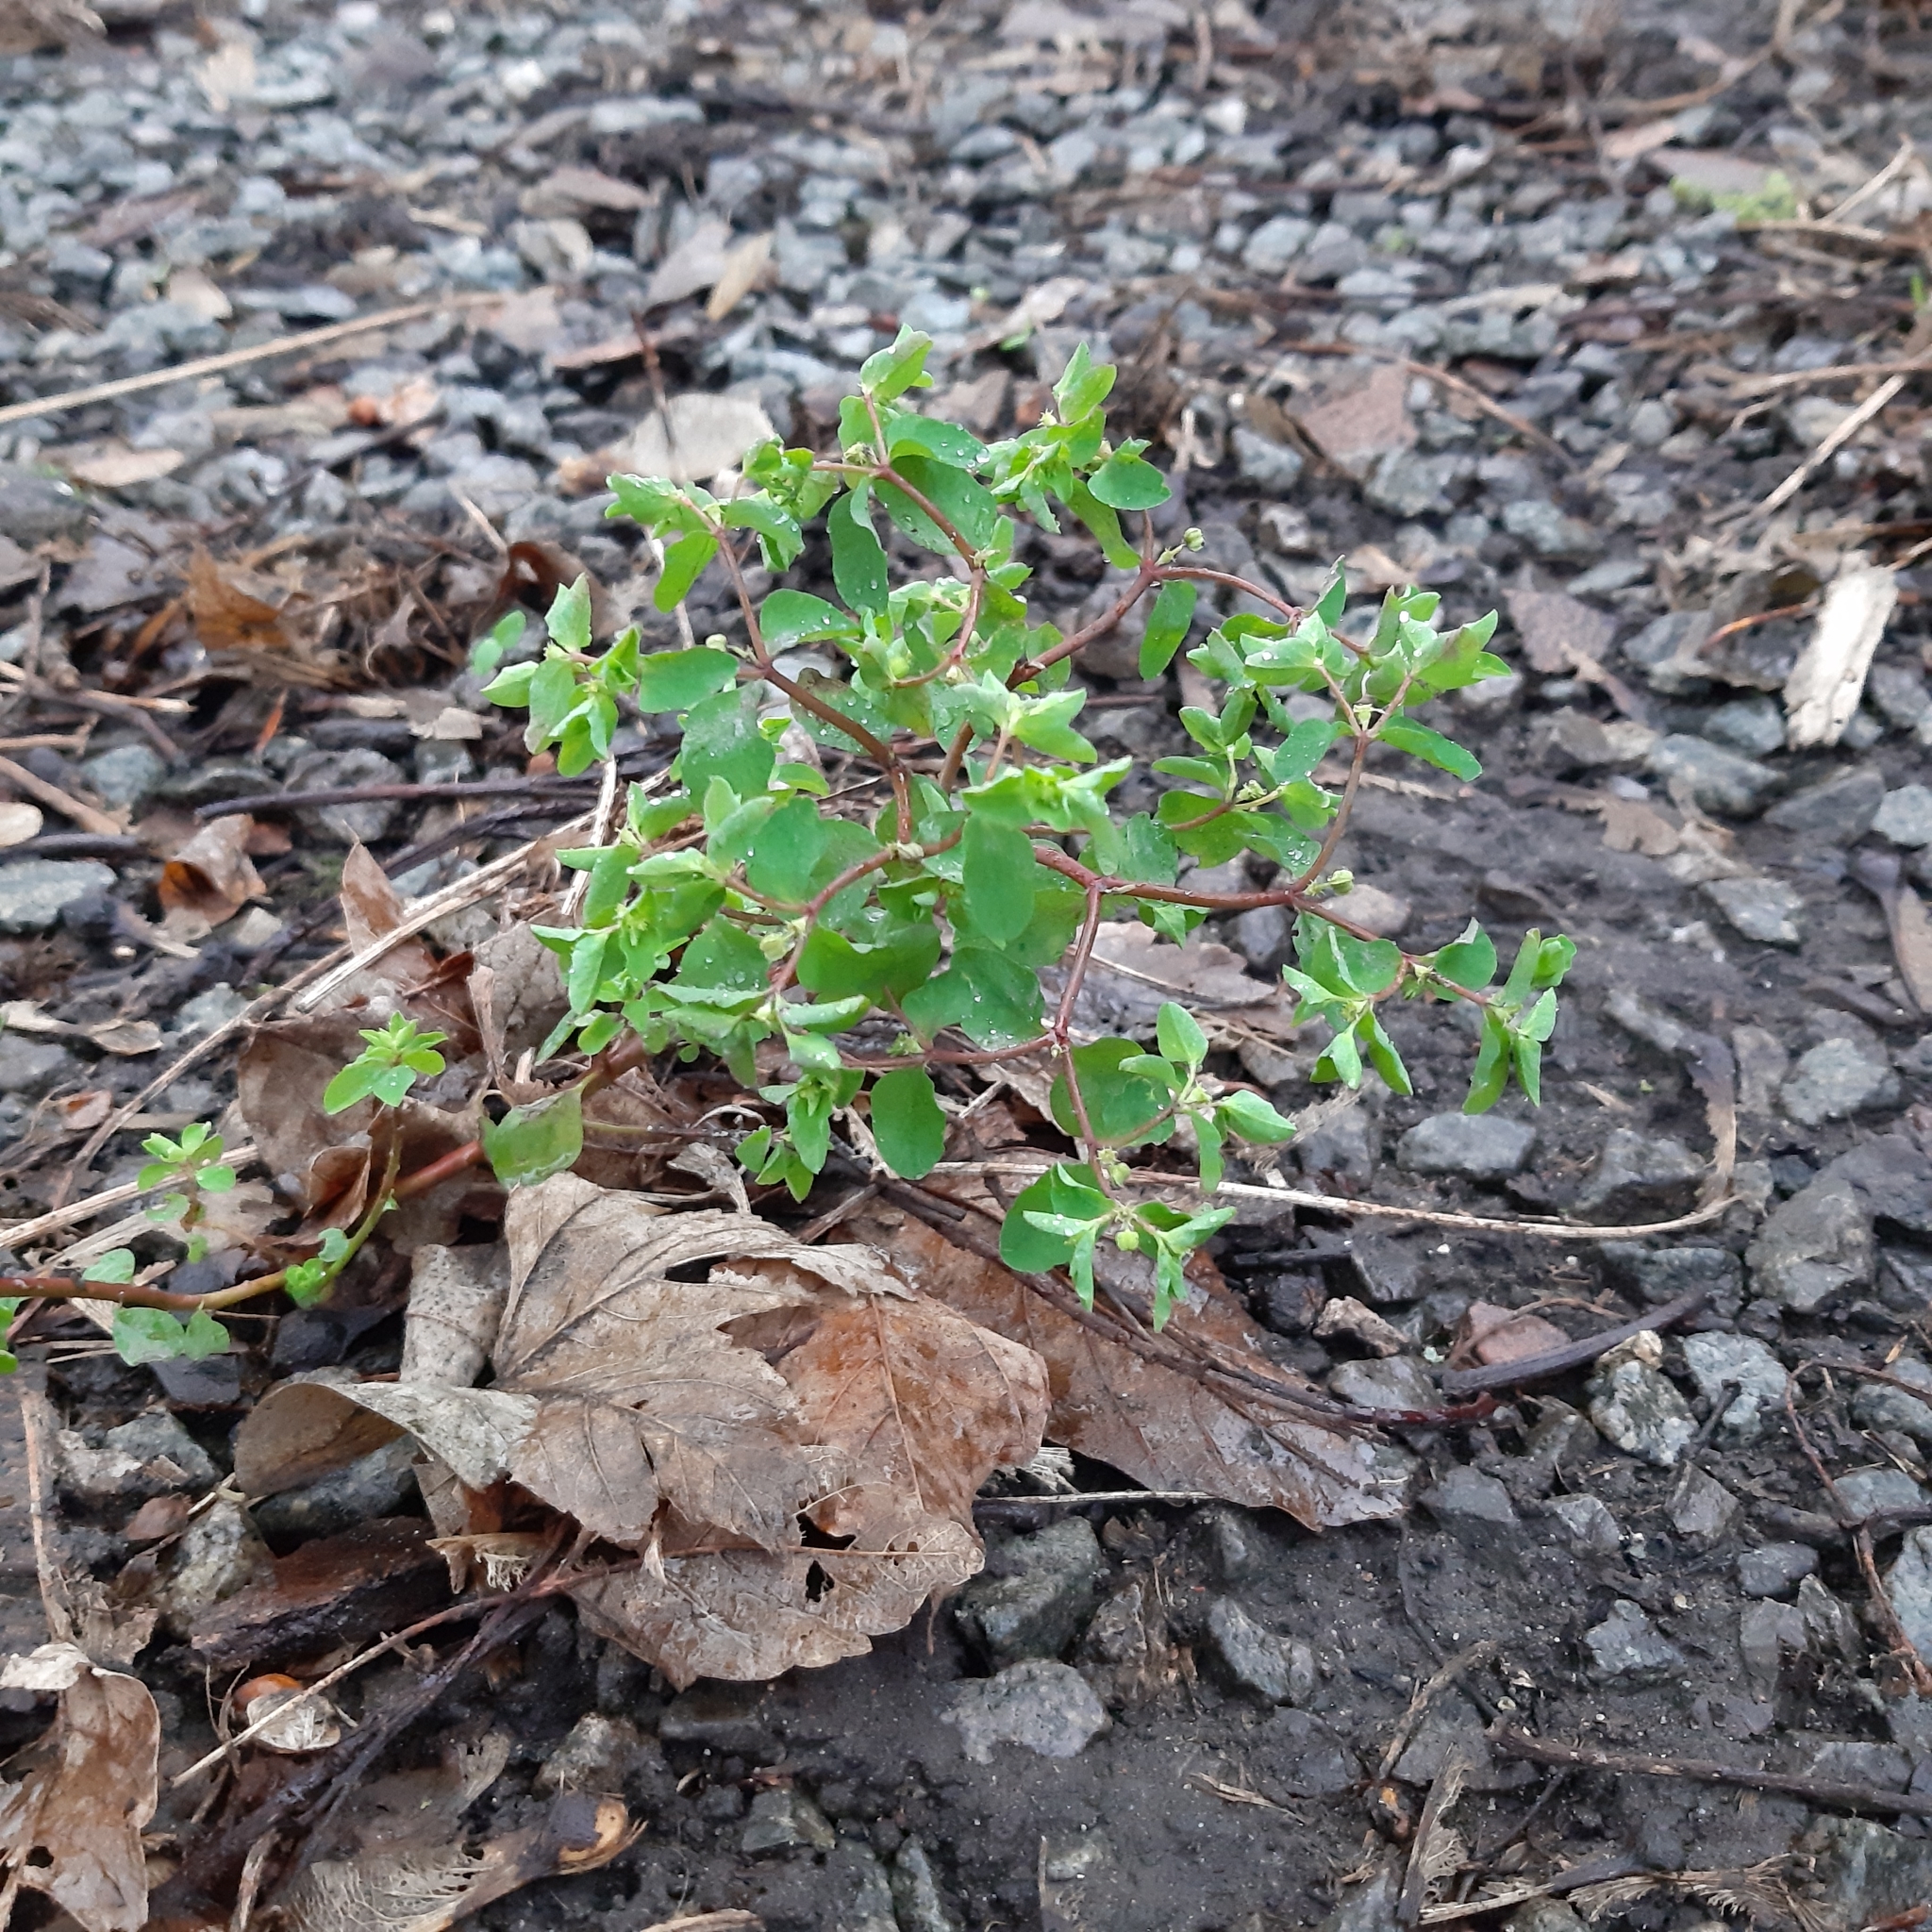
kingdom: Plantae
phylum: Tracheophyta
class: Magnoliopsida
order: Malpighiales
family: Euphorbiaceae
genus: Euphorbia
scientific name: Euphorbia peplus
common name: Petty spurge
